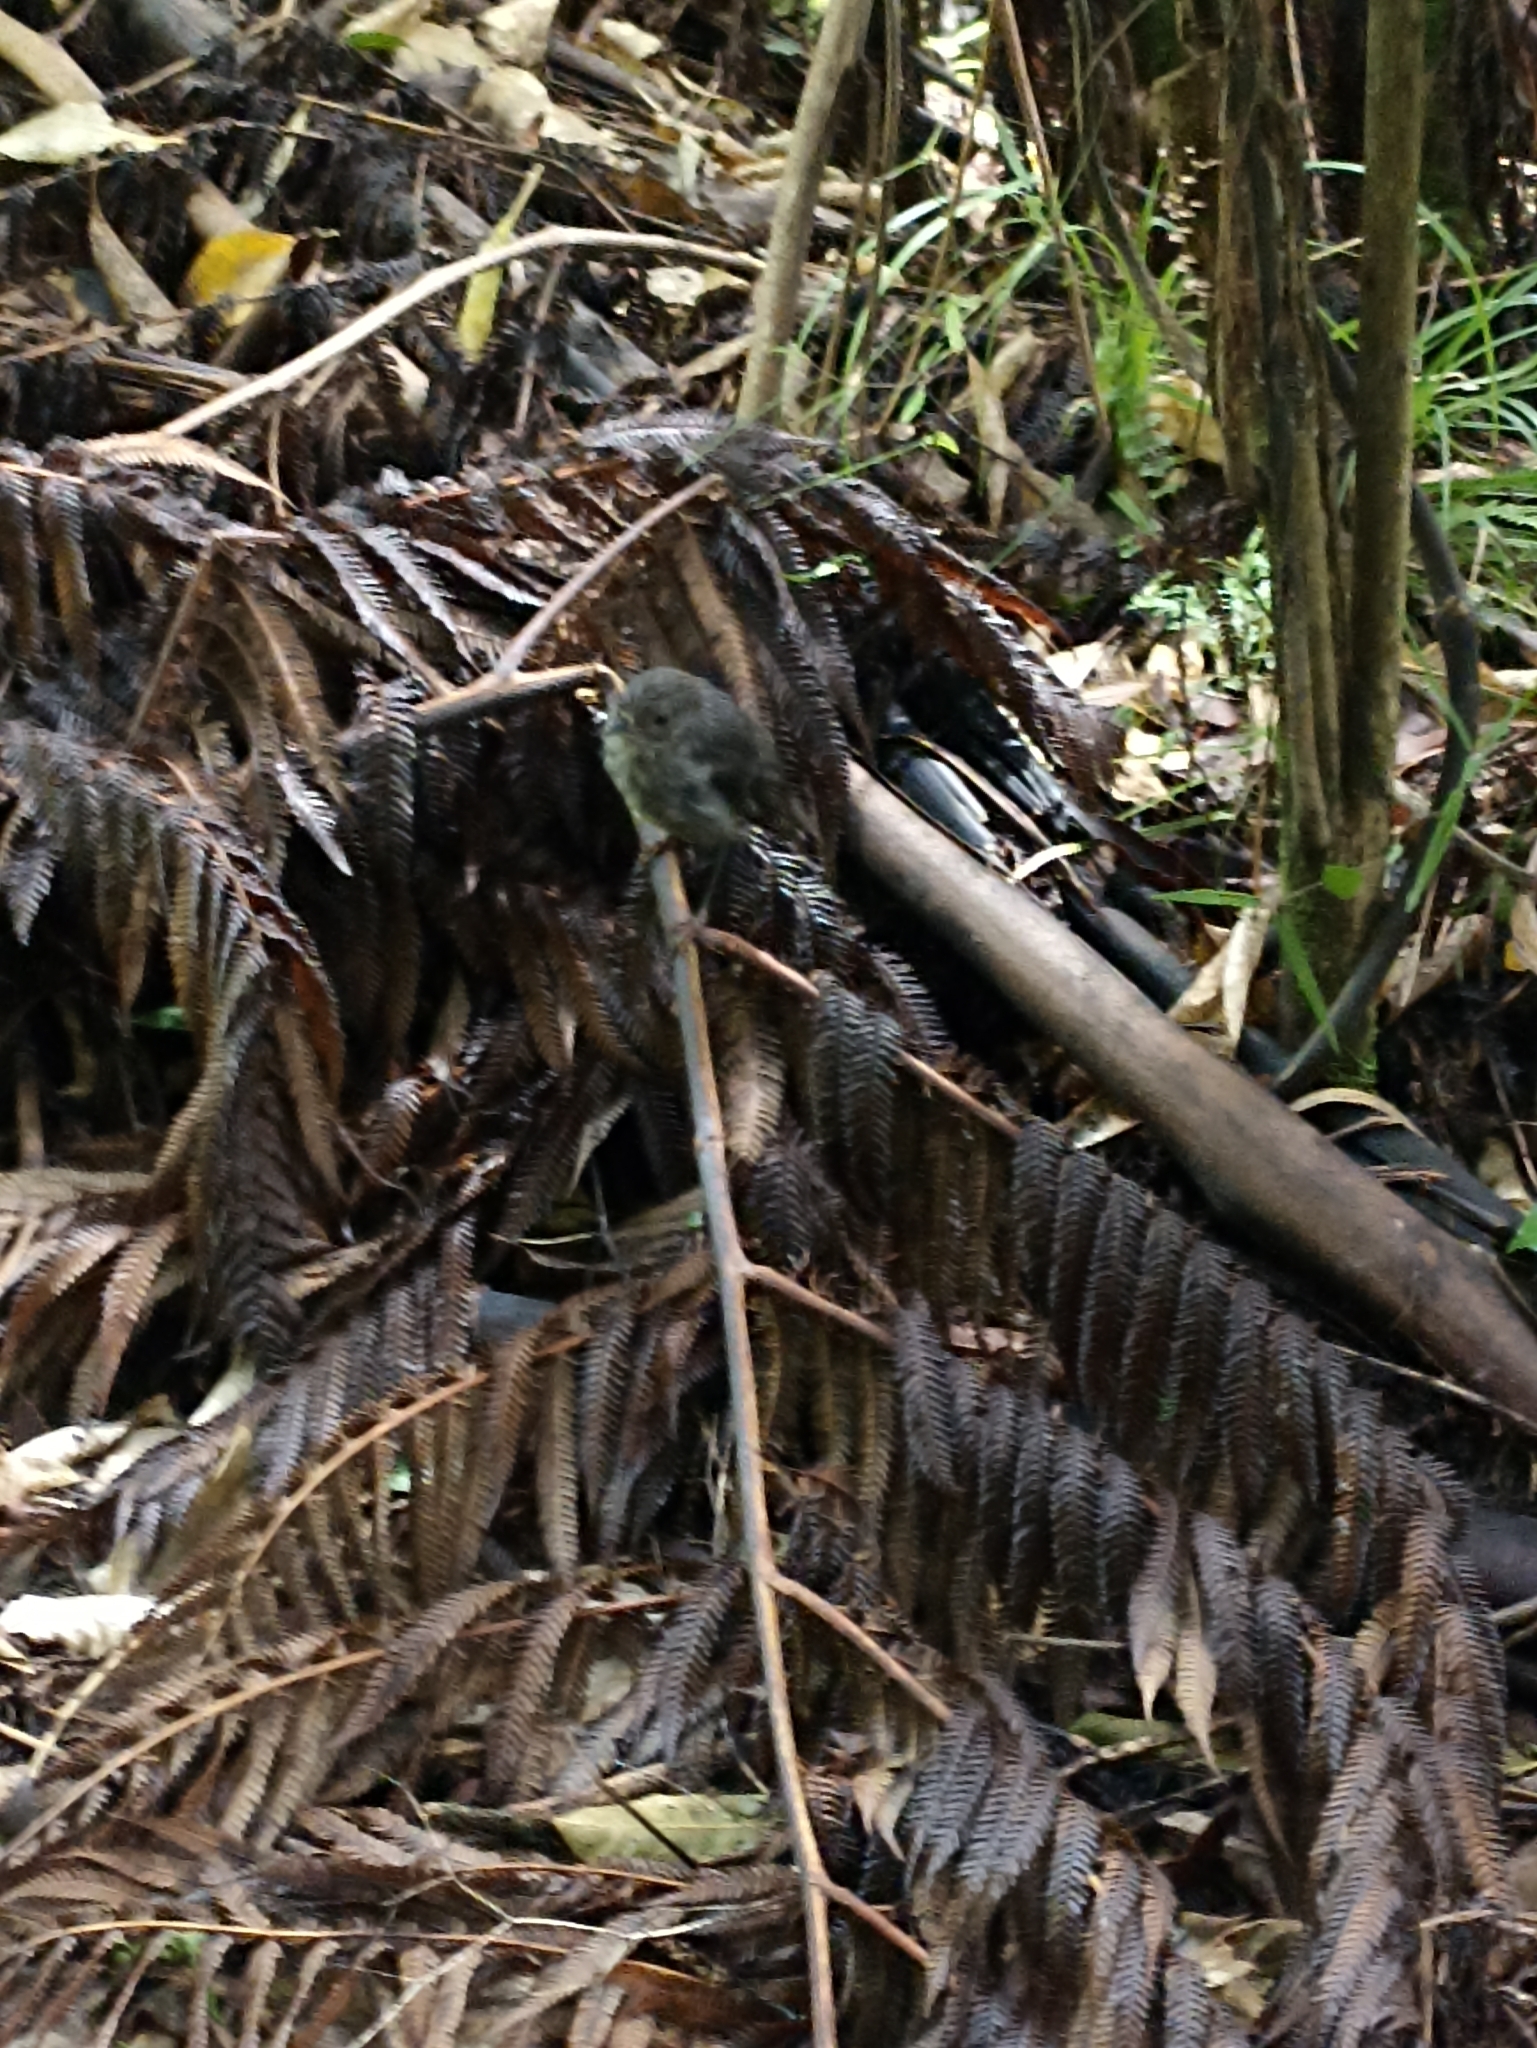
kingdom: Animalia
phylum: Chordata
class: Aves
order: Passeriformes
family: Petroicidae
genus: Petroica
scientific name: Petroica australis
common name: New zealand robin
